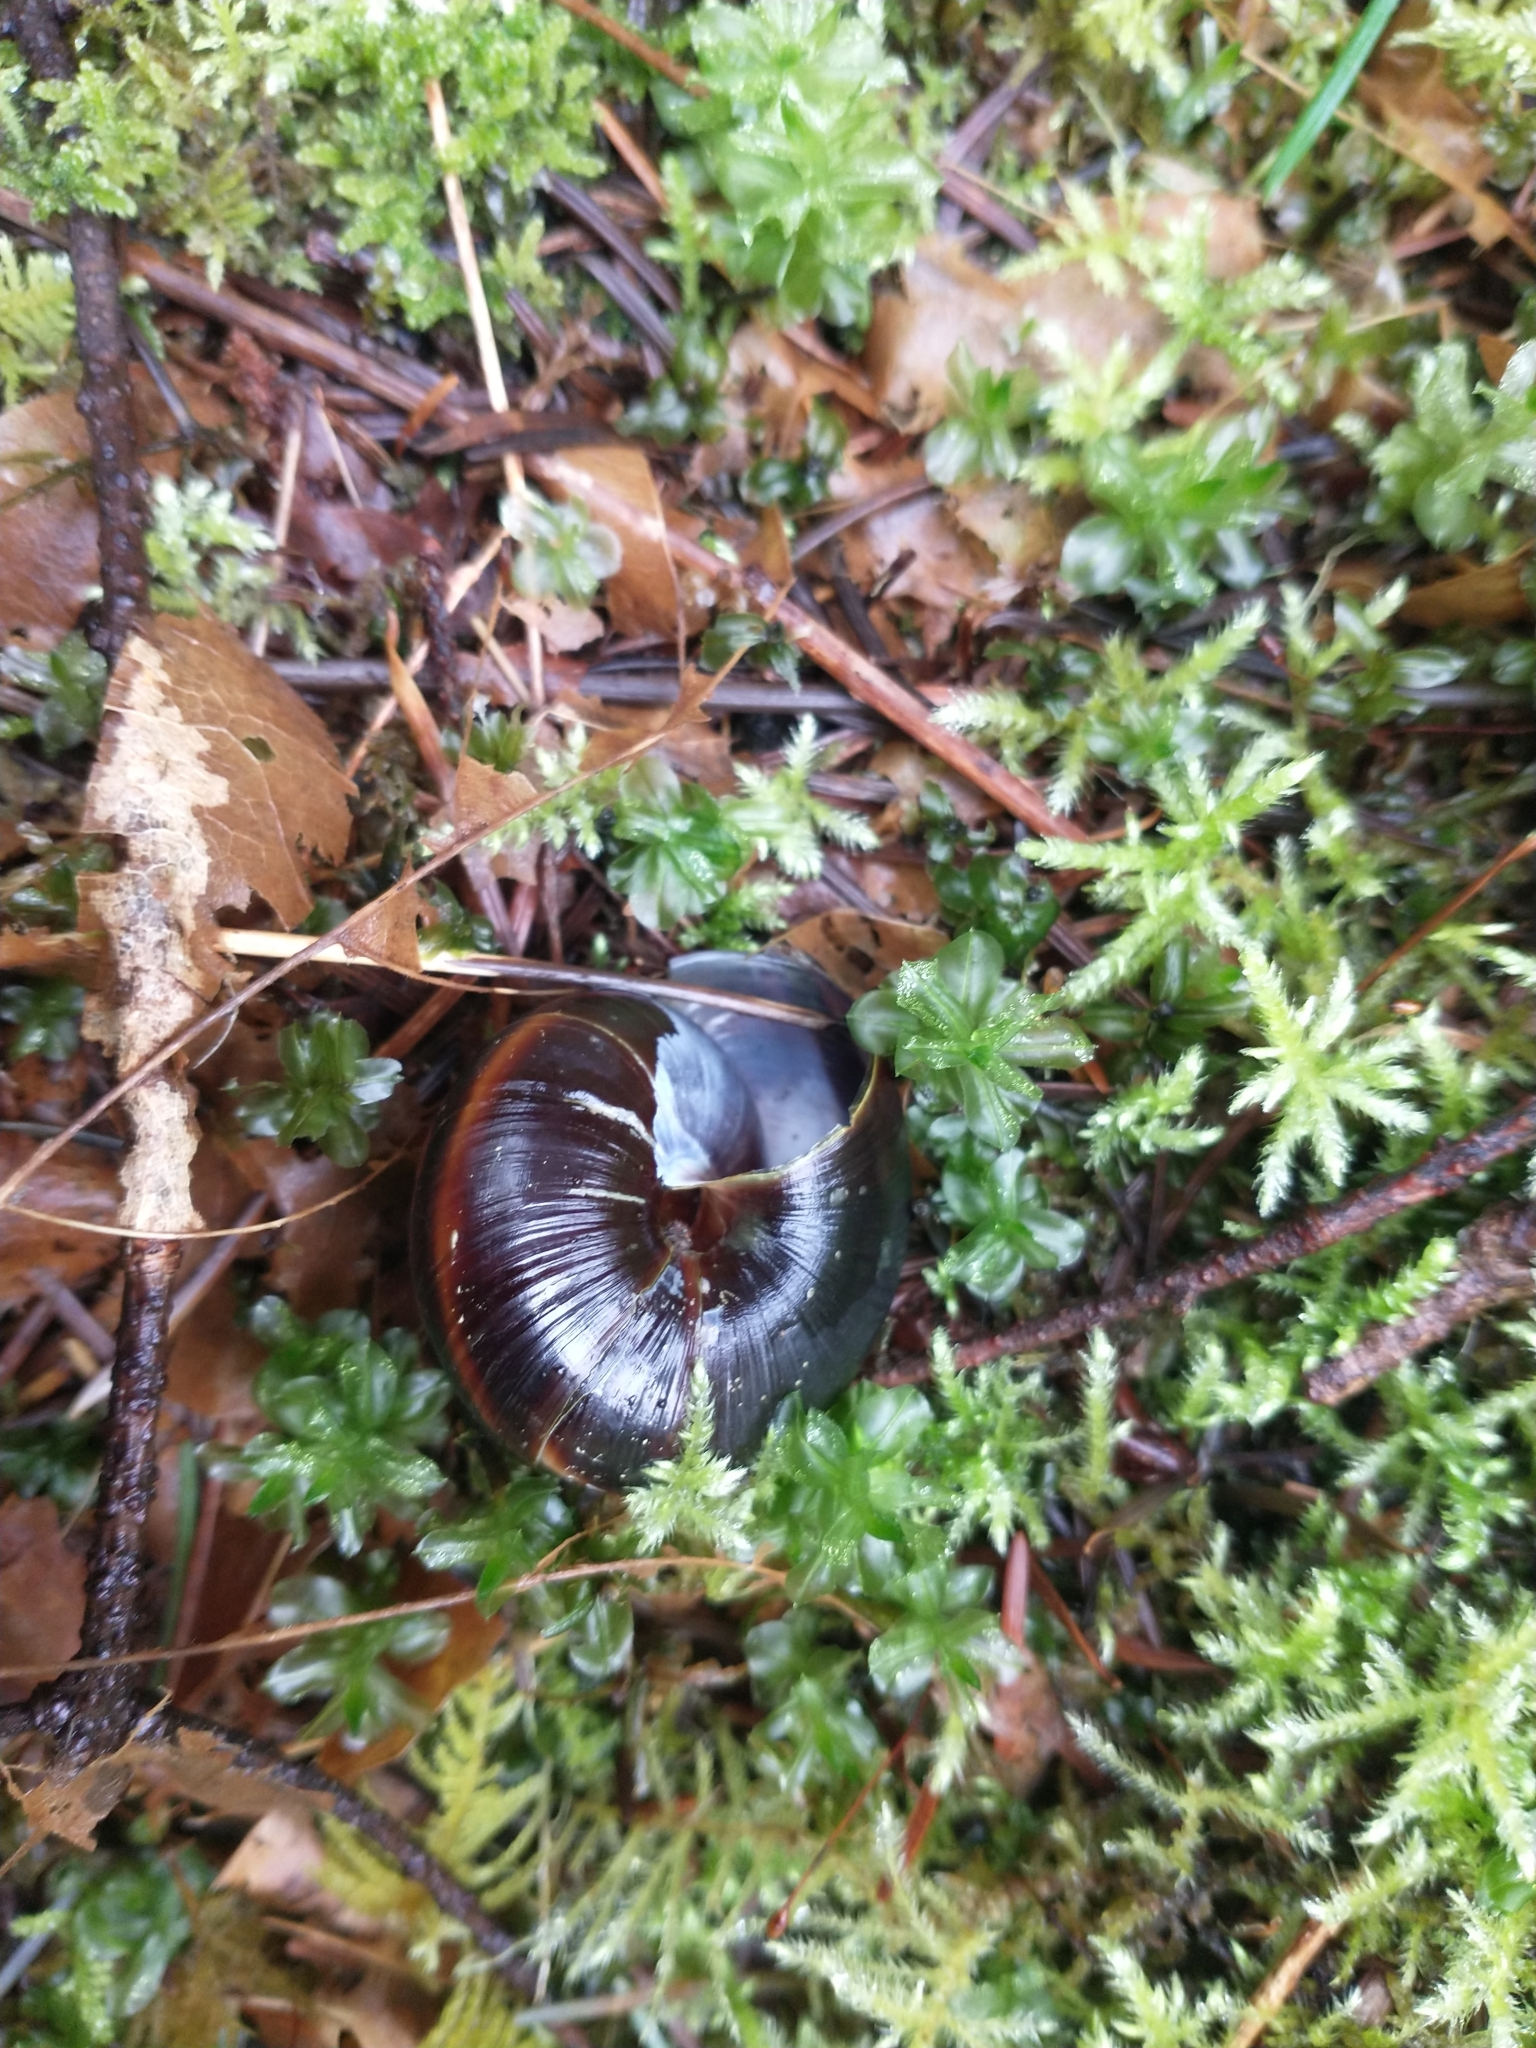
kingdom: Animalia
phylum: Mollusca
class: Gastropoda
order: Stylommatophora
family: Xanthonychidae
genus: Monadenia
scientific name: Monadenia fidelis
